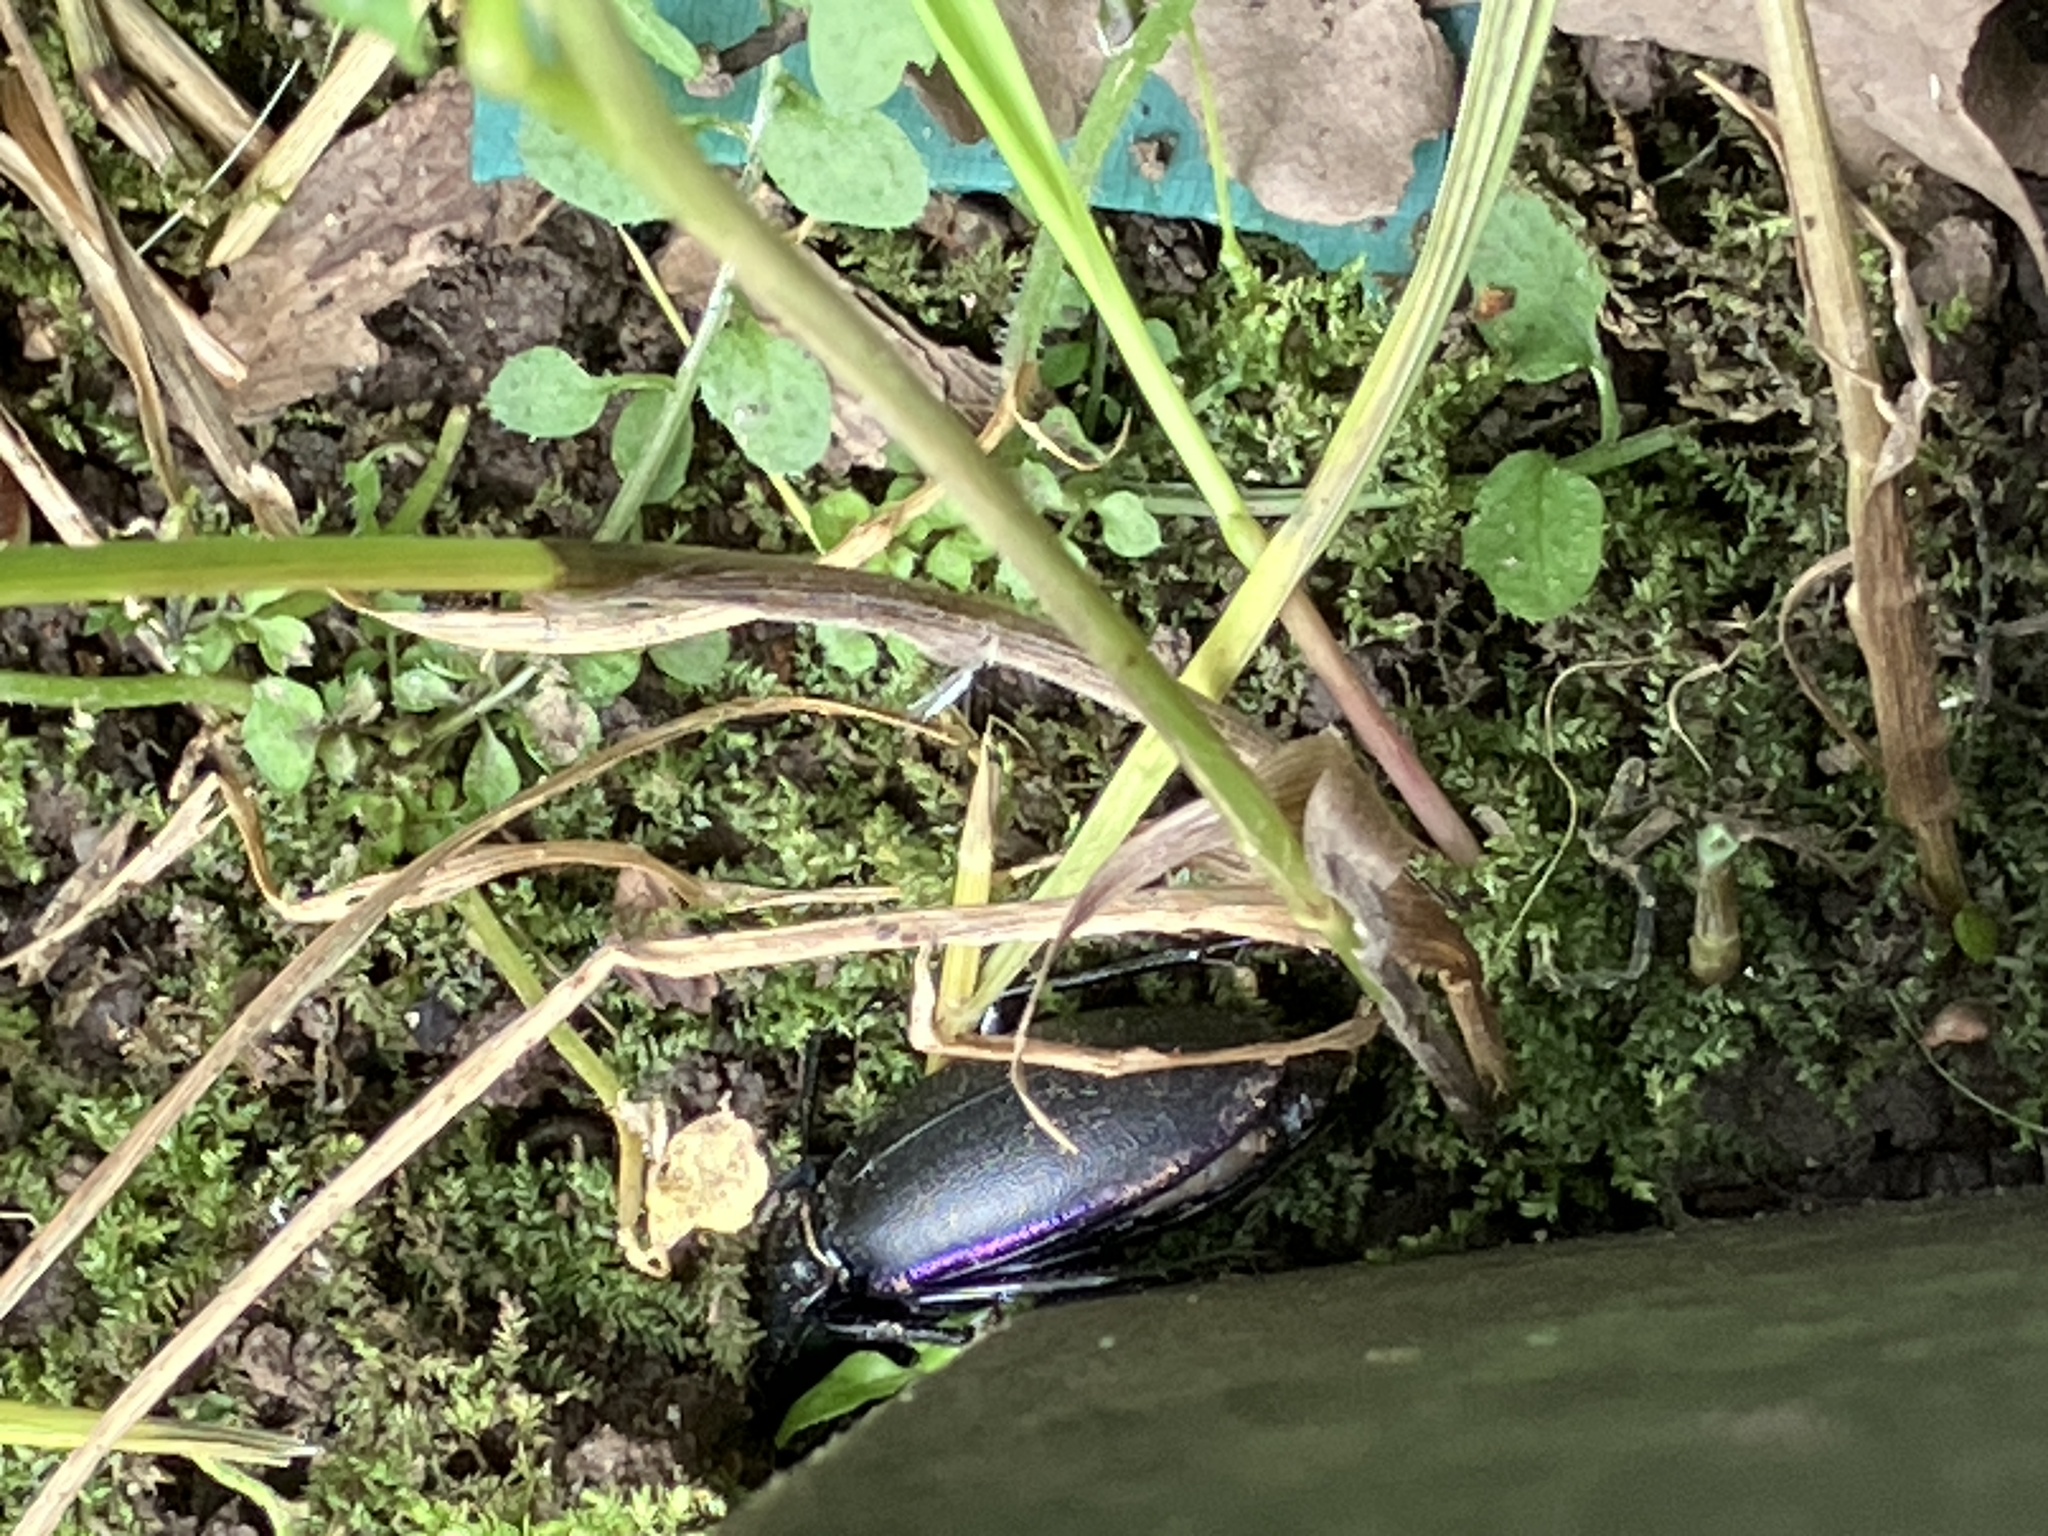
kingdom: Animalia
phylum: Arthropoda
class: Insecta
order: Coleoptera
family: Carabidae
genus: Carabus
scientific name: Carabus violaceus
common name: Violet ground beetle
